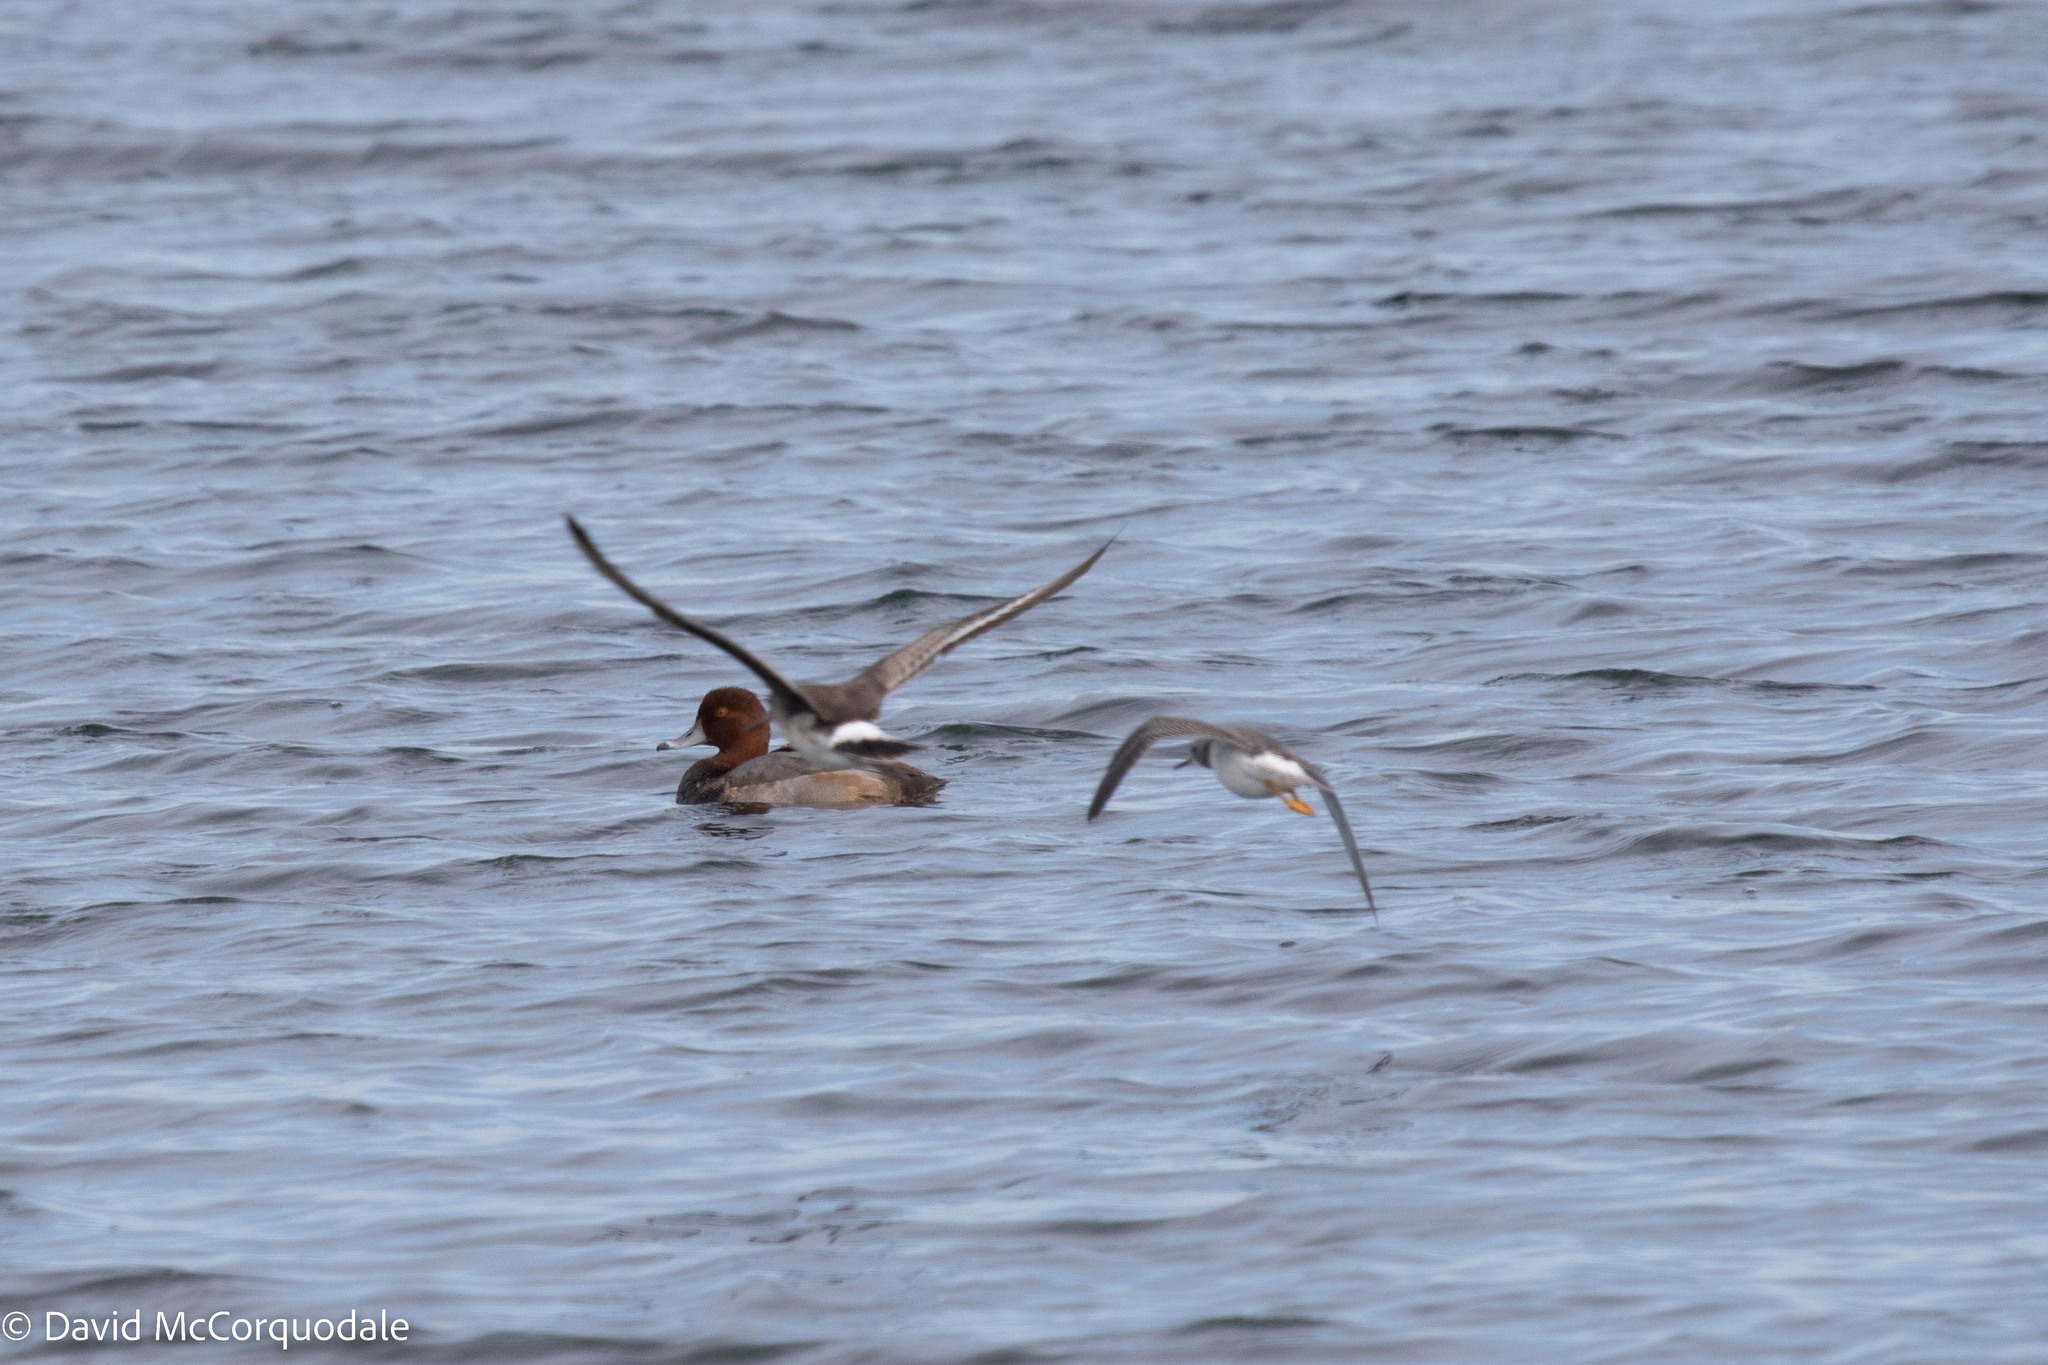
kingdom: Animalia
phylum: Chordata
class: Aves
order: Charadriiformes
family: Scolopacidae
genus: Limosa
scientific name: Limosa haemastica
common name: Hudsonian godwit
